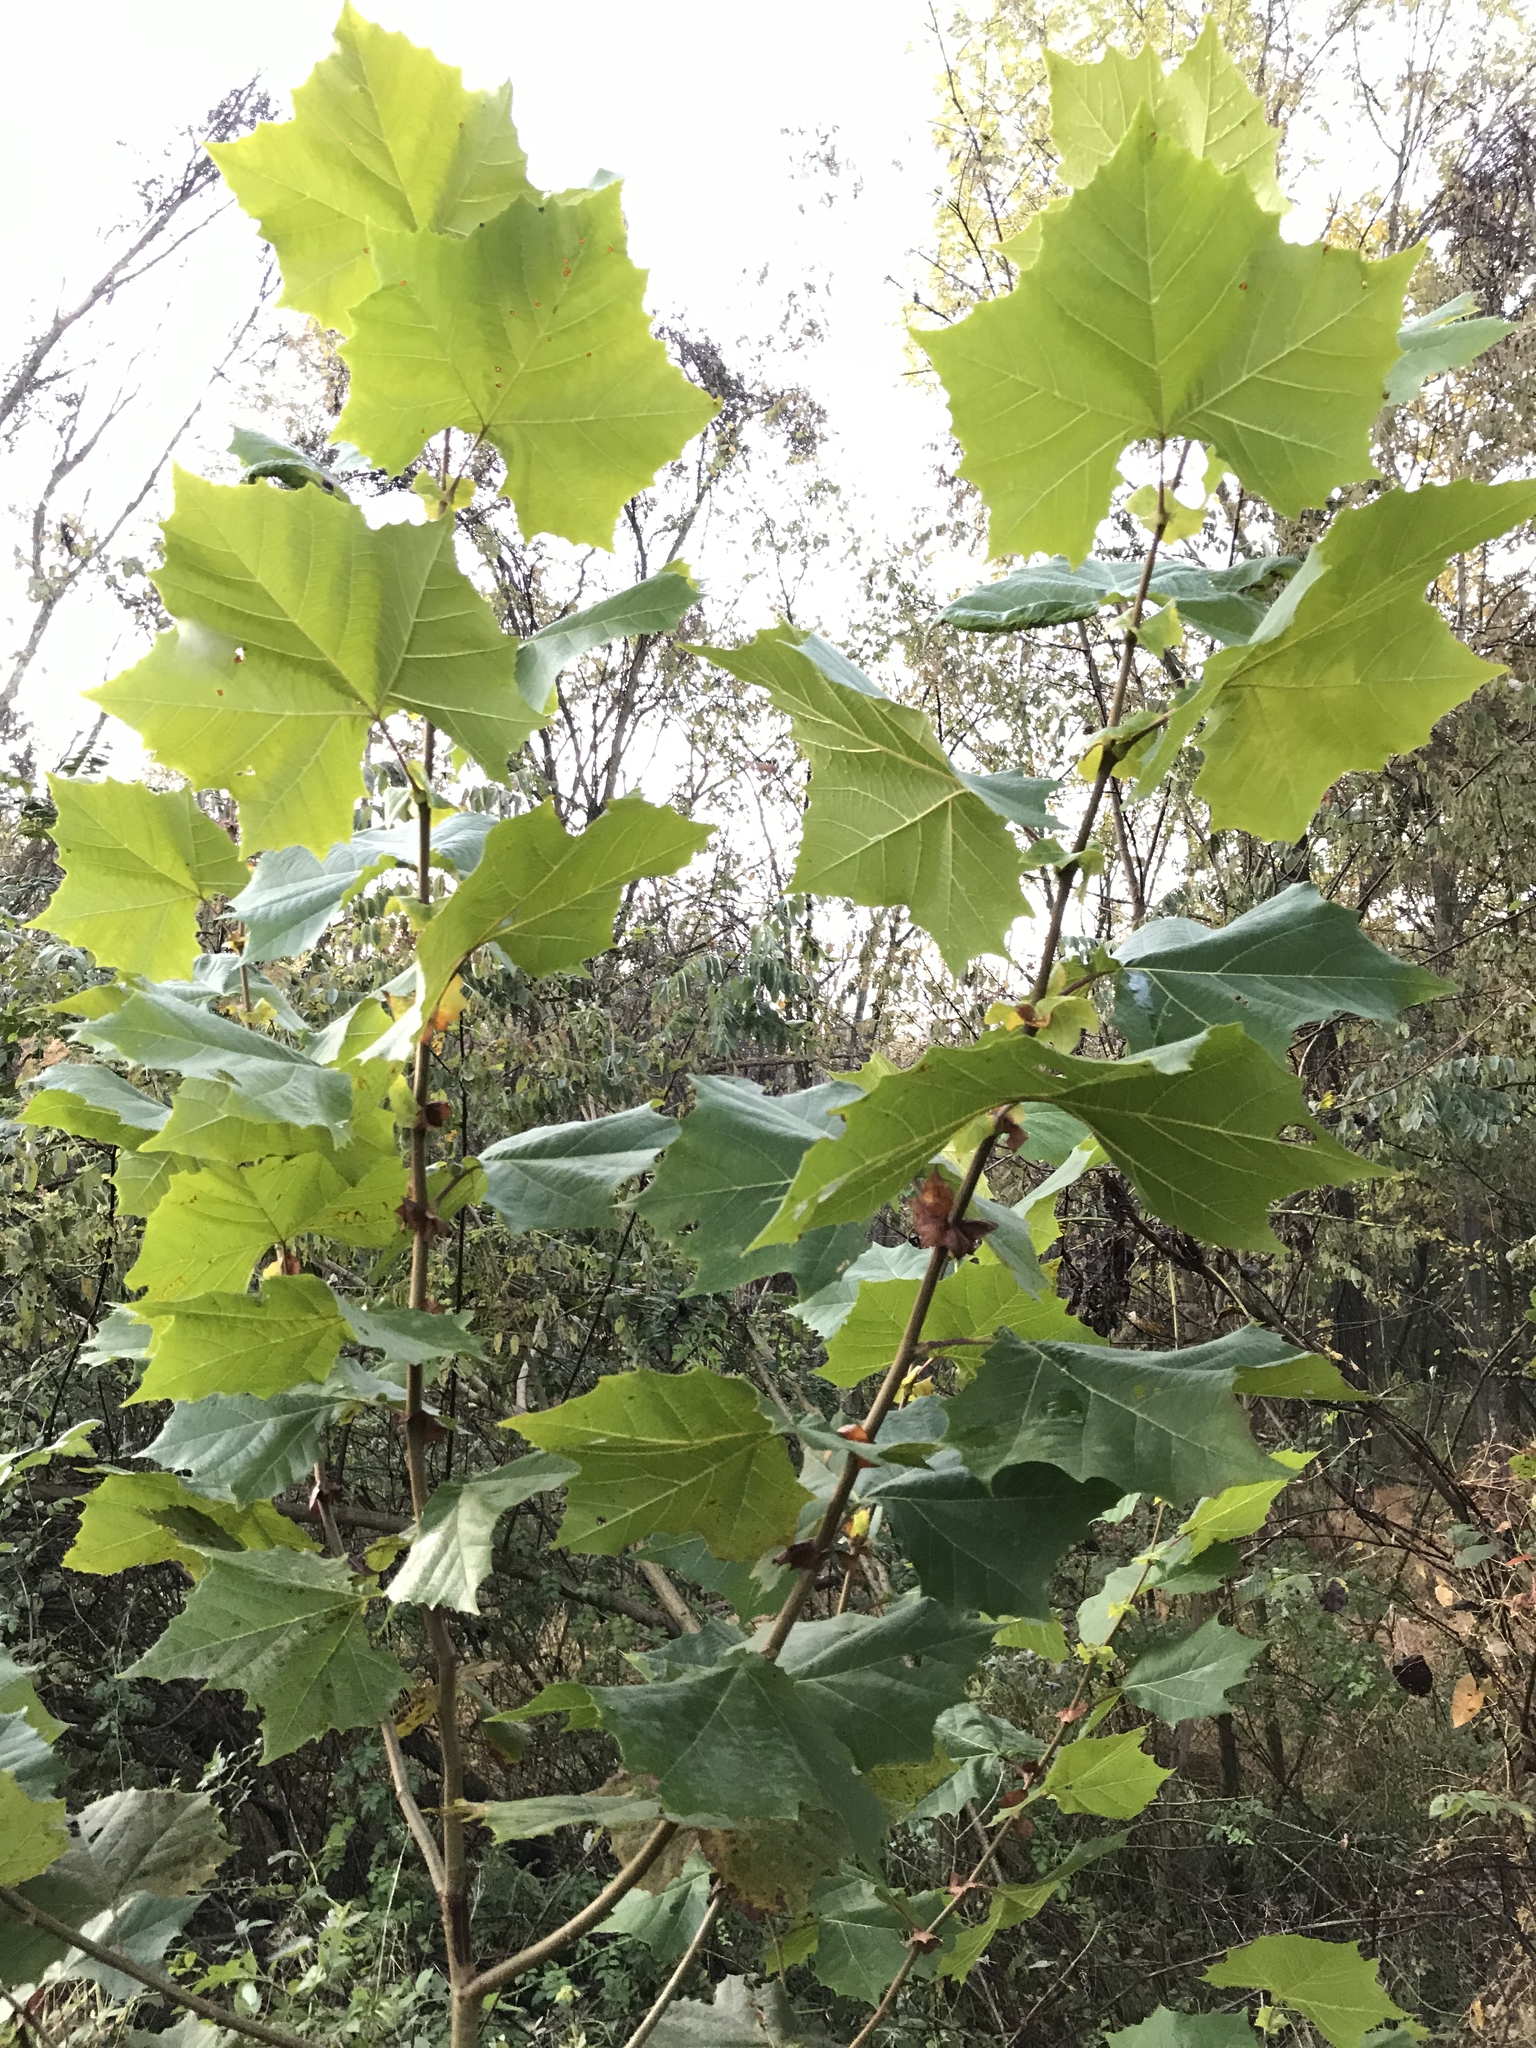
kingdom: Plantae
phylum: Tracheophyta
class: Magnoliopsida
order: Proteales
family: Platanaceae
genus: Platanus
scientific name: Platanus occidentalis
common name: American sycamore
